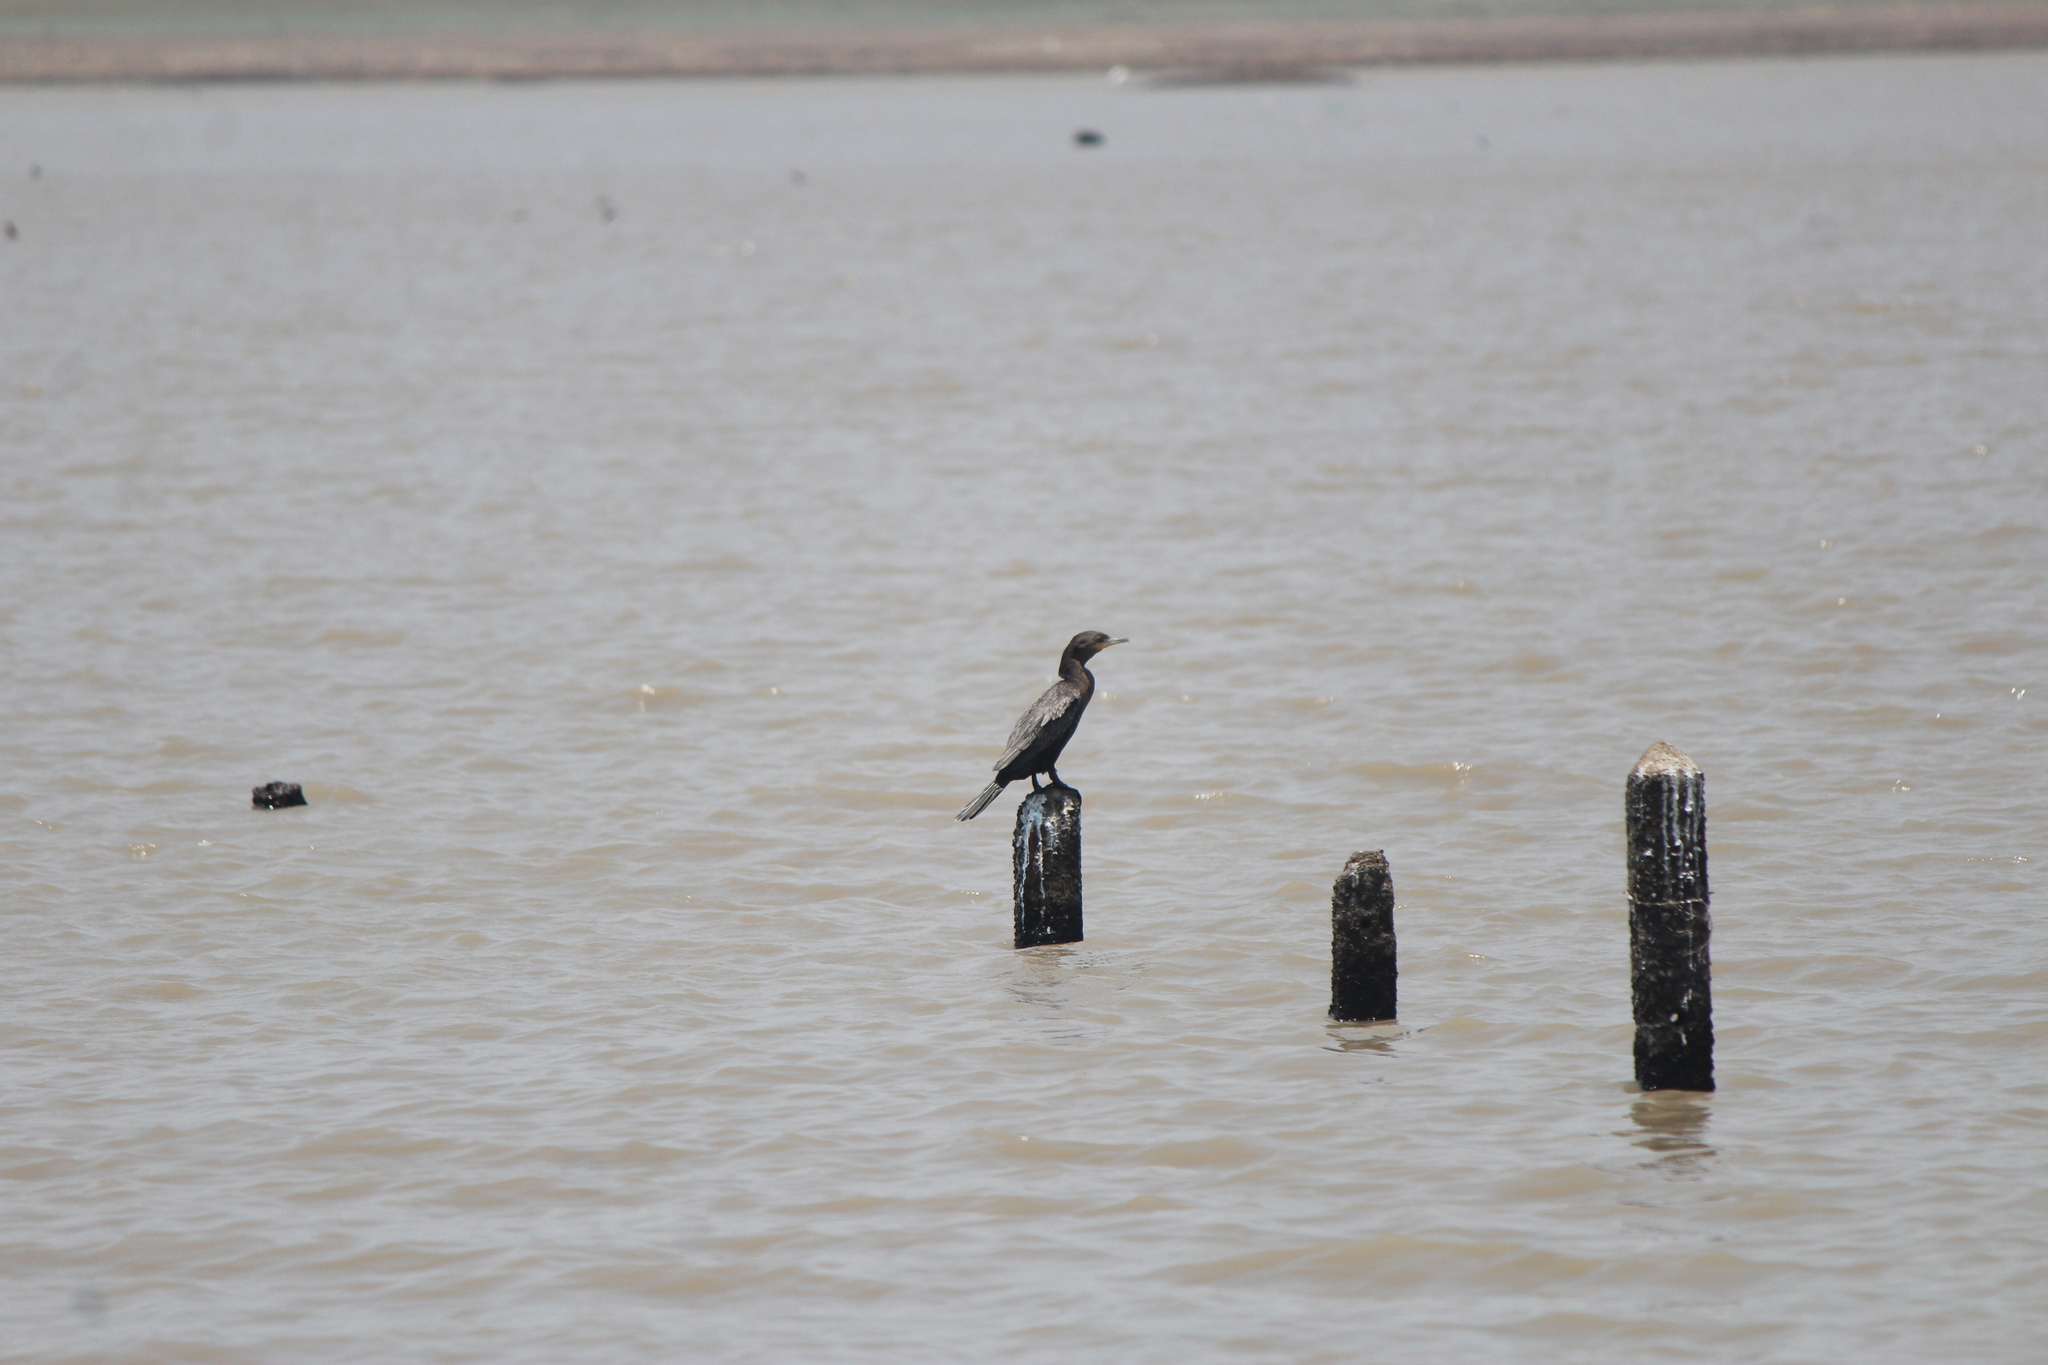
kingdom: Animalia
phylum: Chordata
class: Aves
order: Suliformes
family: Phalacrocoracidae
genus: Phalacrocorax
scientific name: Phalacrocorax brasilianus
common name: Neotropic cormorant
